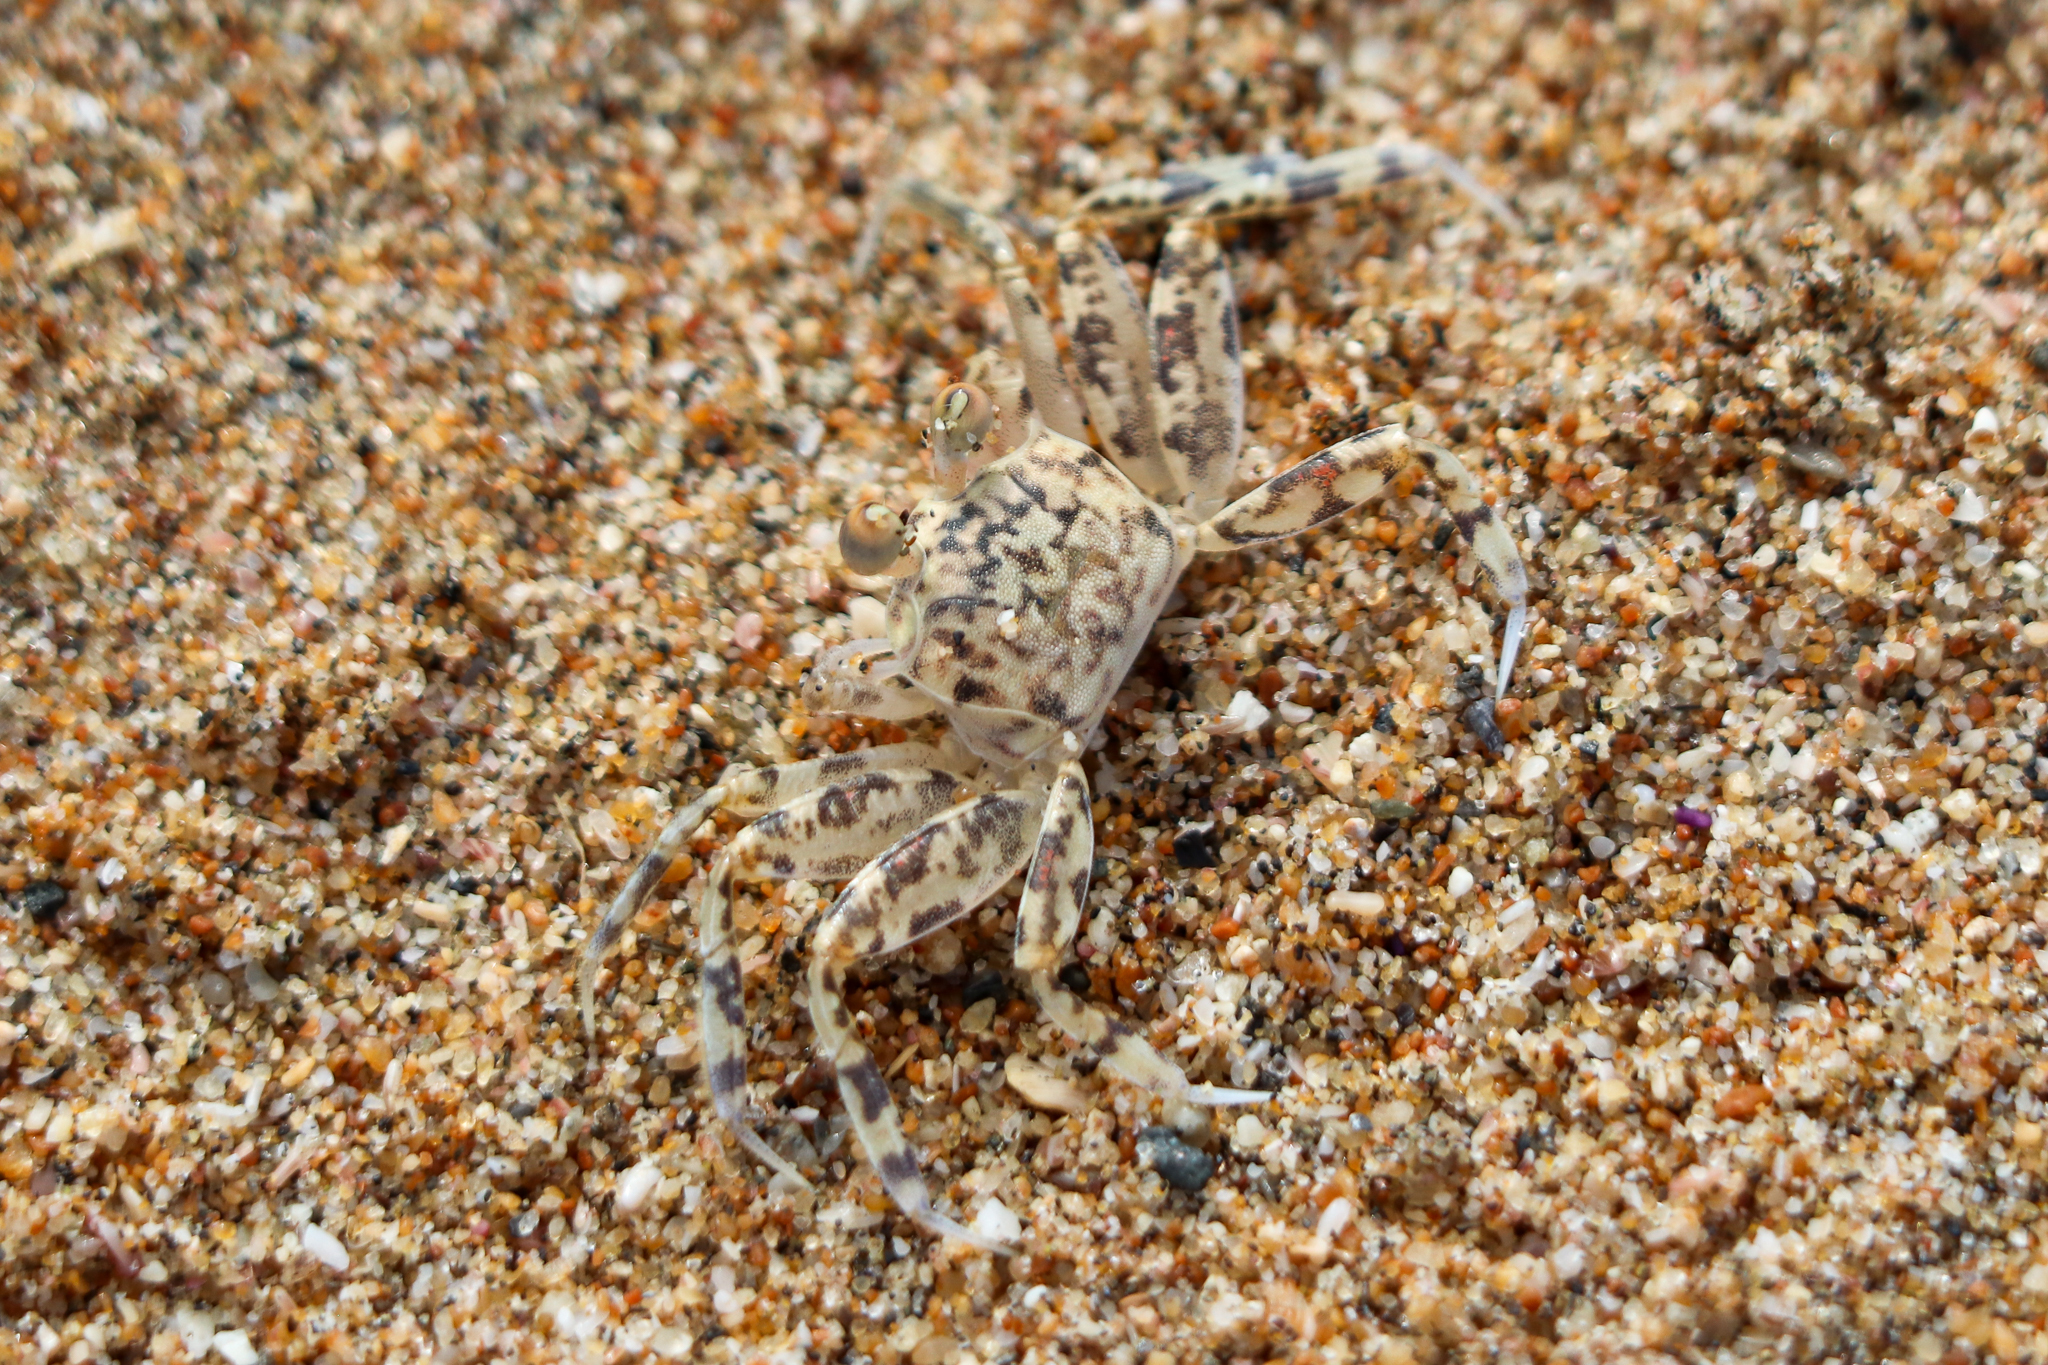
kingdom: Animalia
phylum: Arthropoda
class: Malacostraca
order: Decapoda
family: Ocypodidae
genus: Ocypode
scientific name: Ocypode occidentalis
